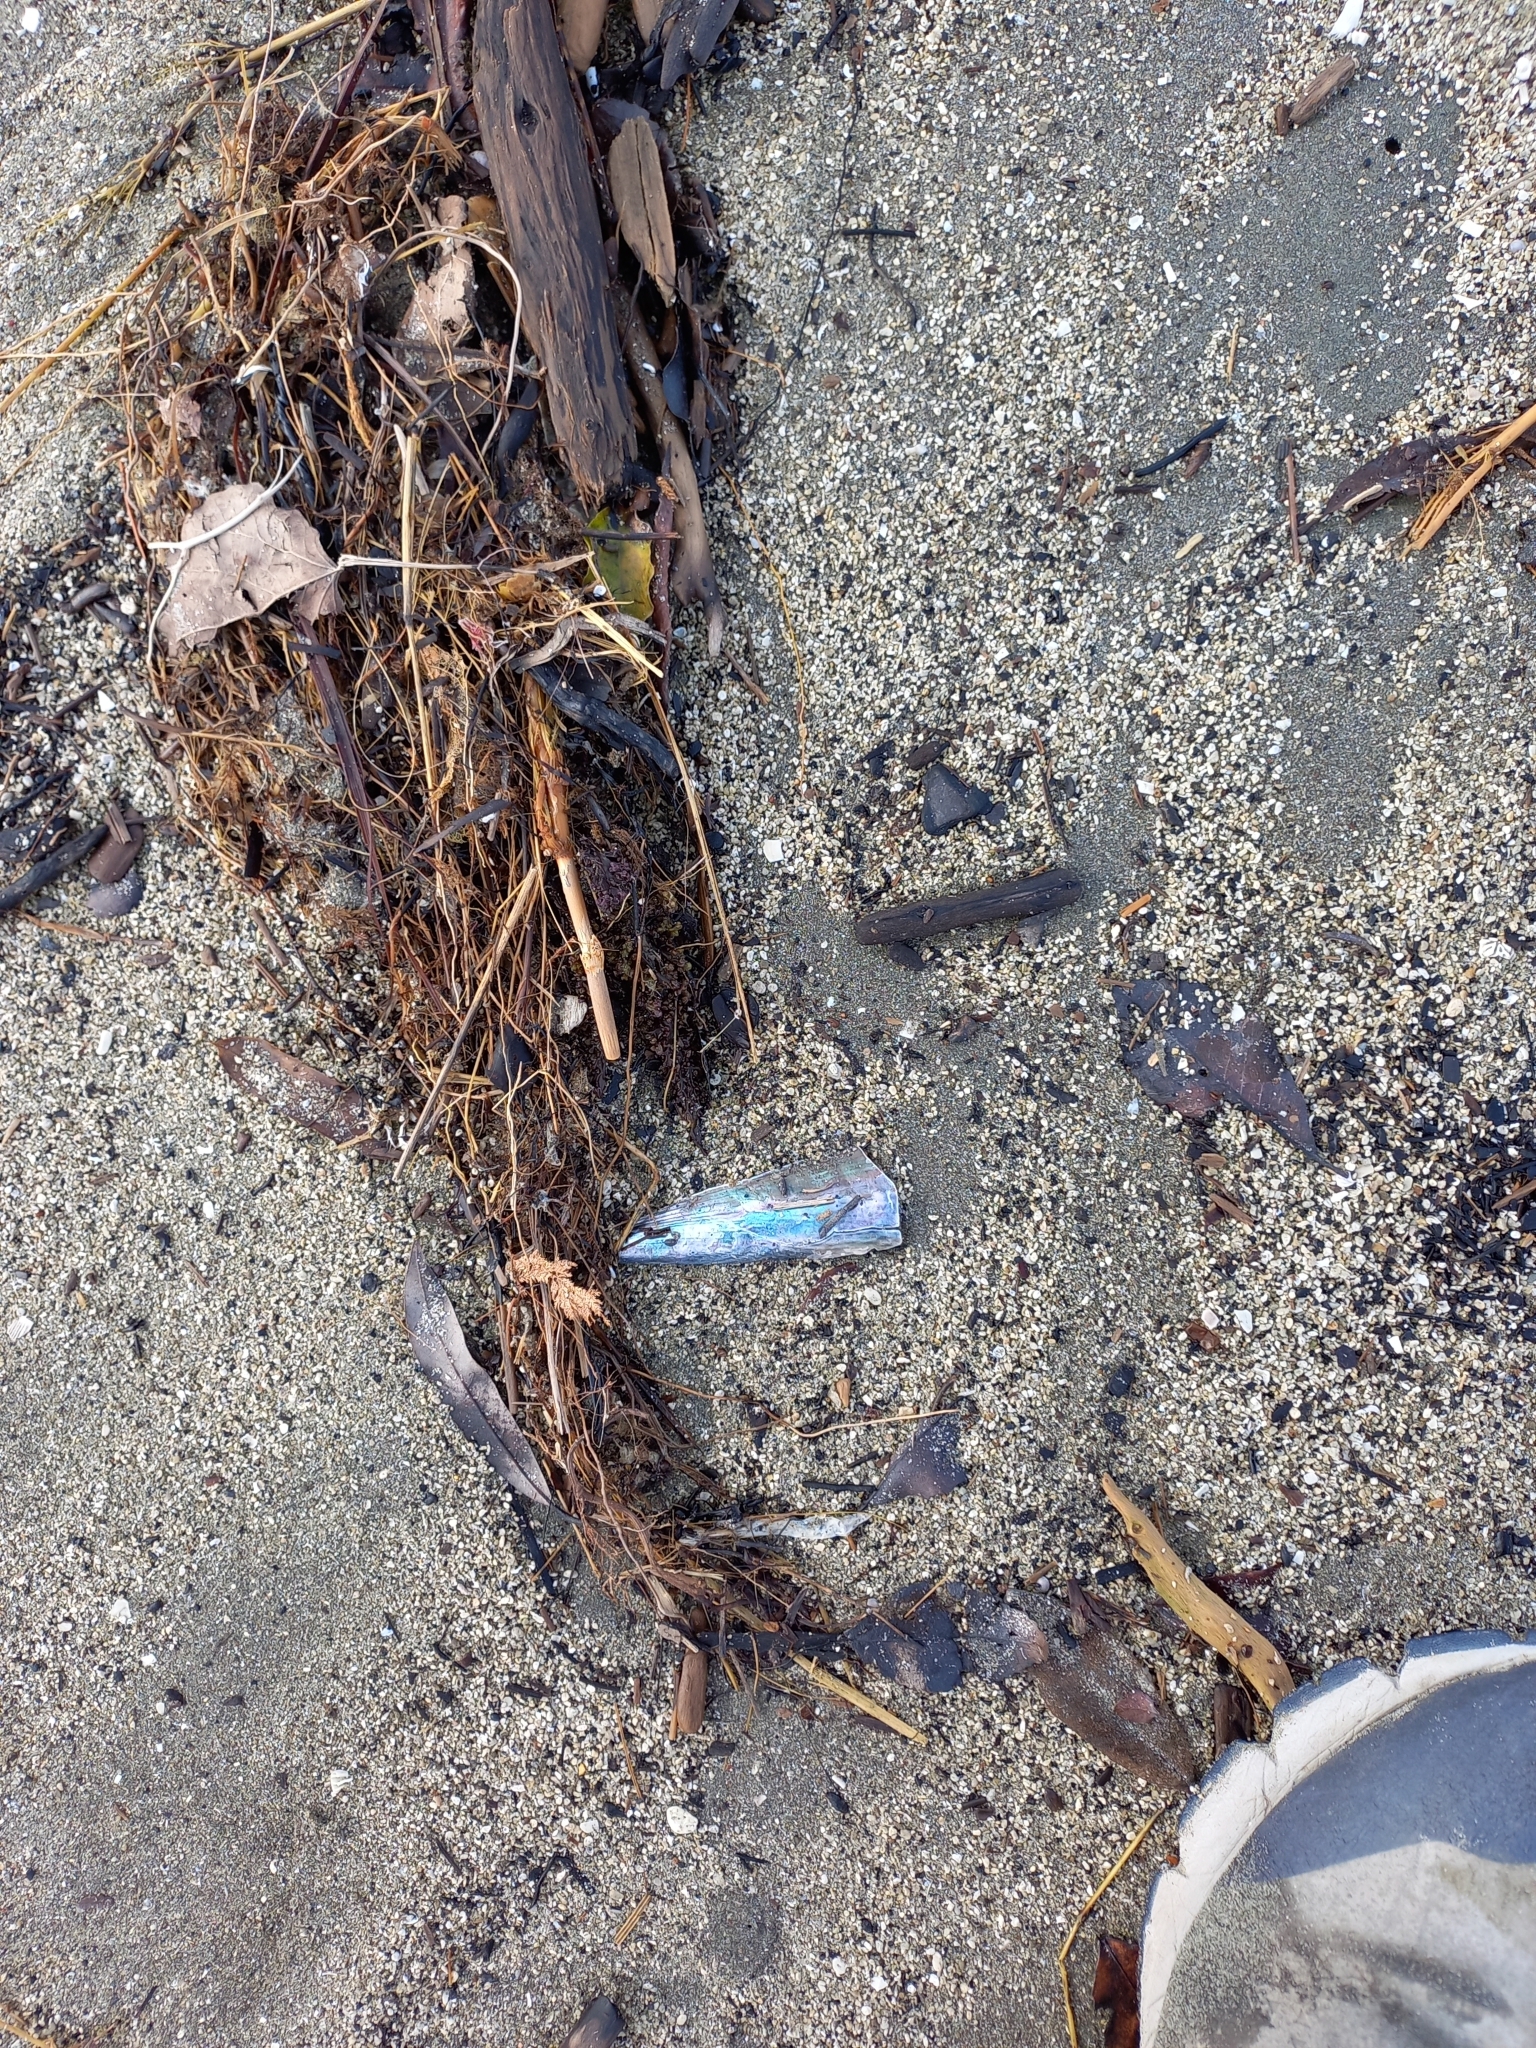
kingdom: Animalia
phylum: Mollusca
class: Bivalvia
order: Ostreida
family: Pinnidae
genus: Atrina
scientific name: Atrina zelandica
